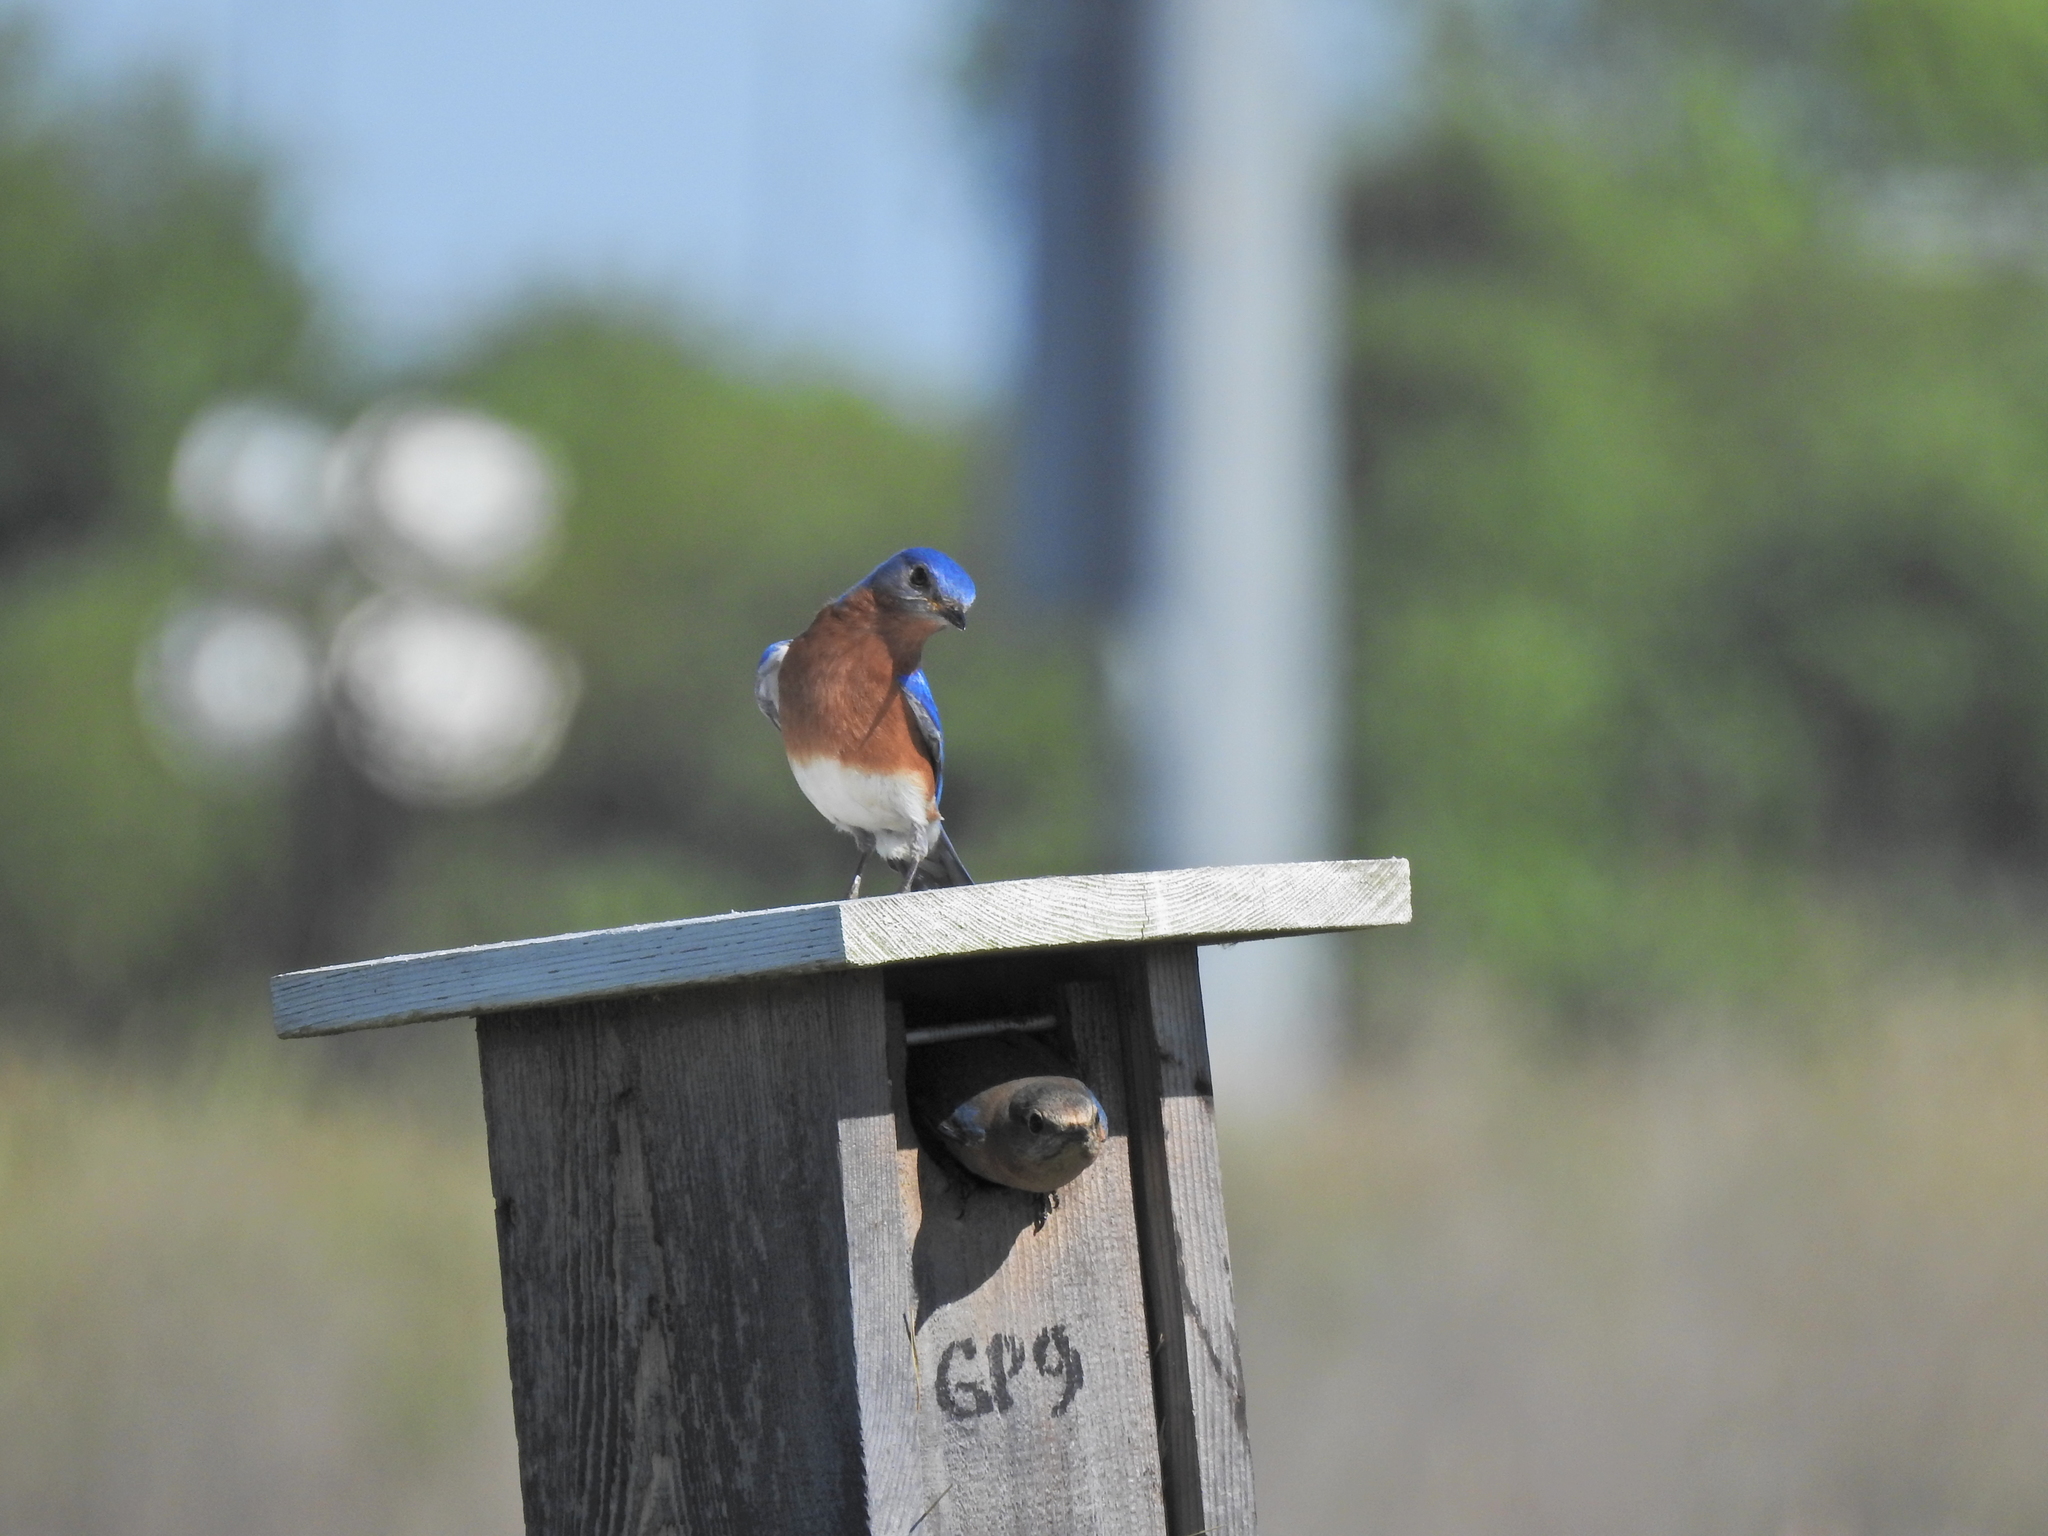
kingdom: Animalia
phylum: Chordata
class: Aves
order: Passeriformes
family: Turdidae
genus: Sialia
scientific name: Sialia sialis
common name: Eastern bluebird
